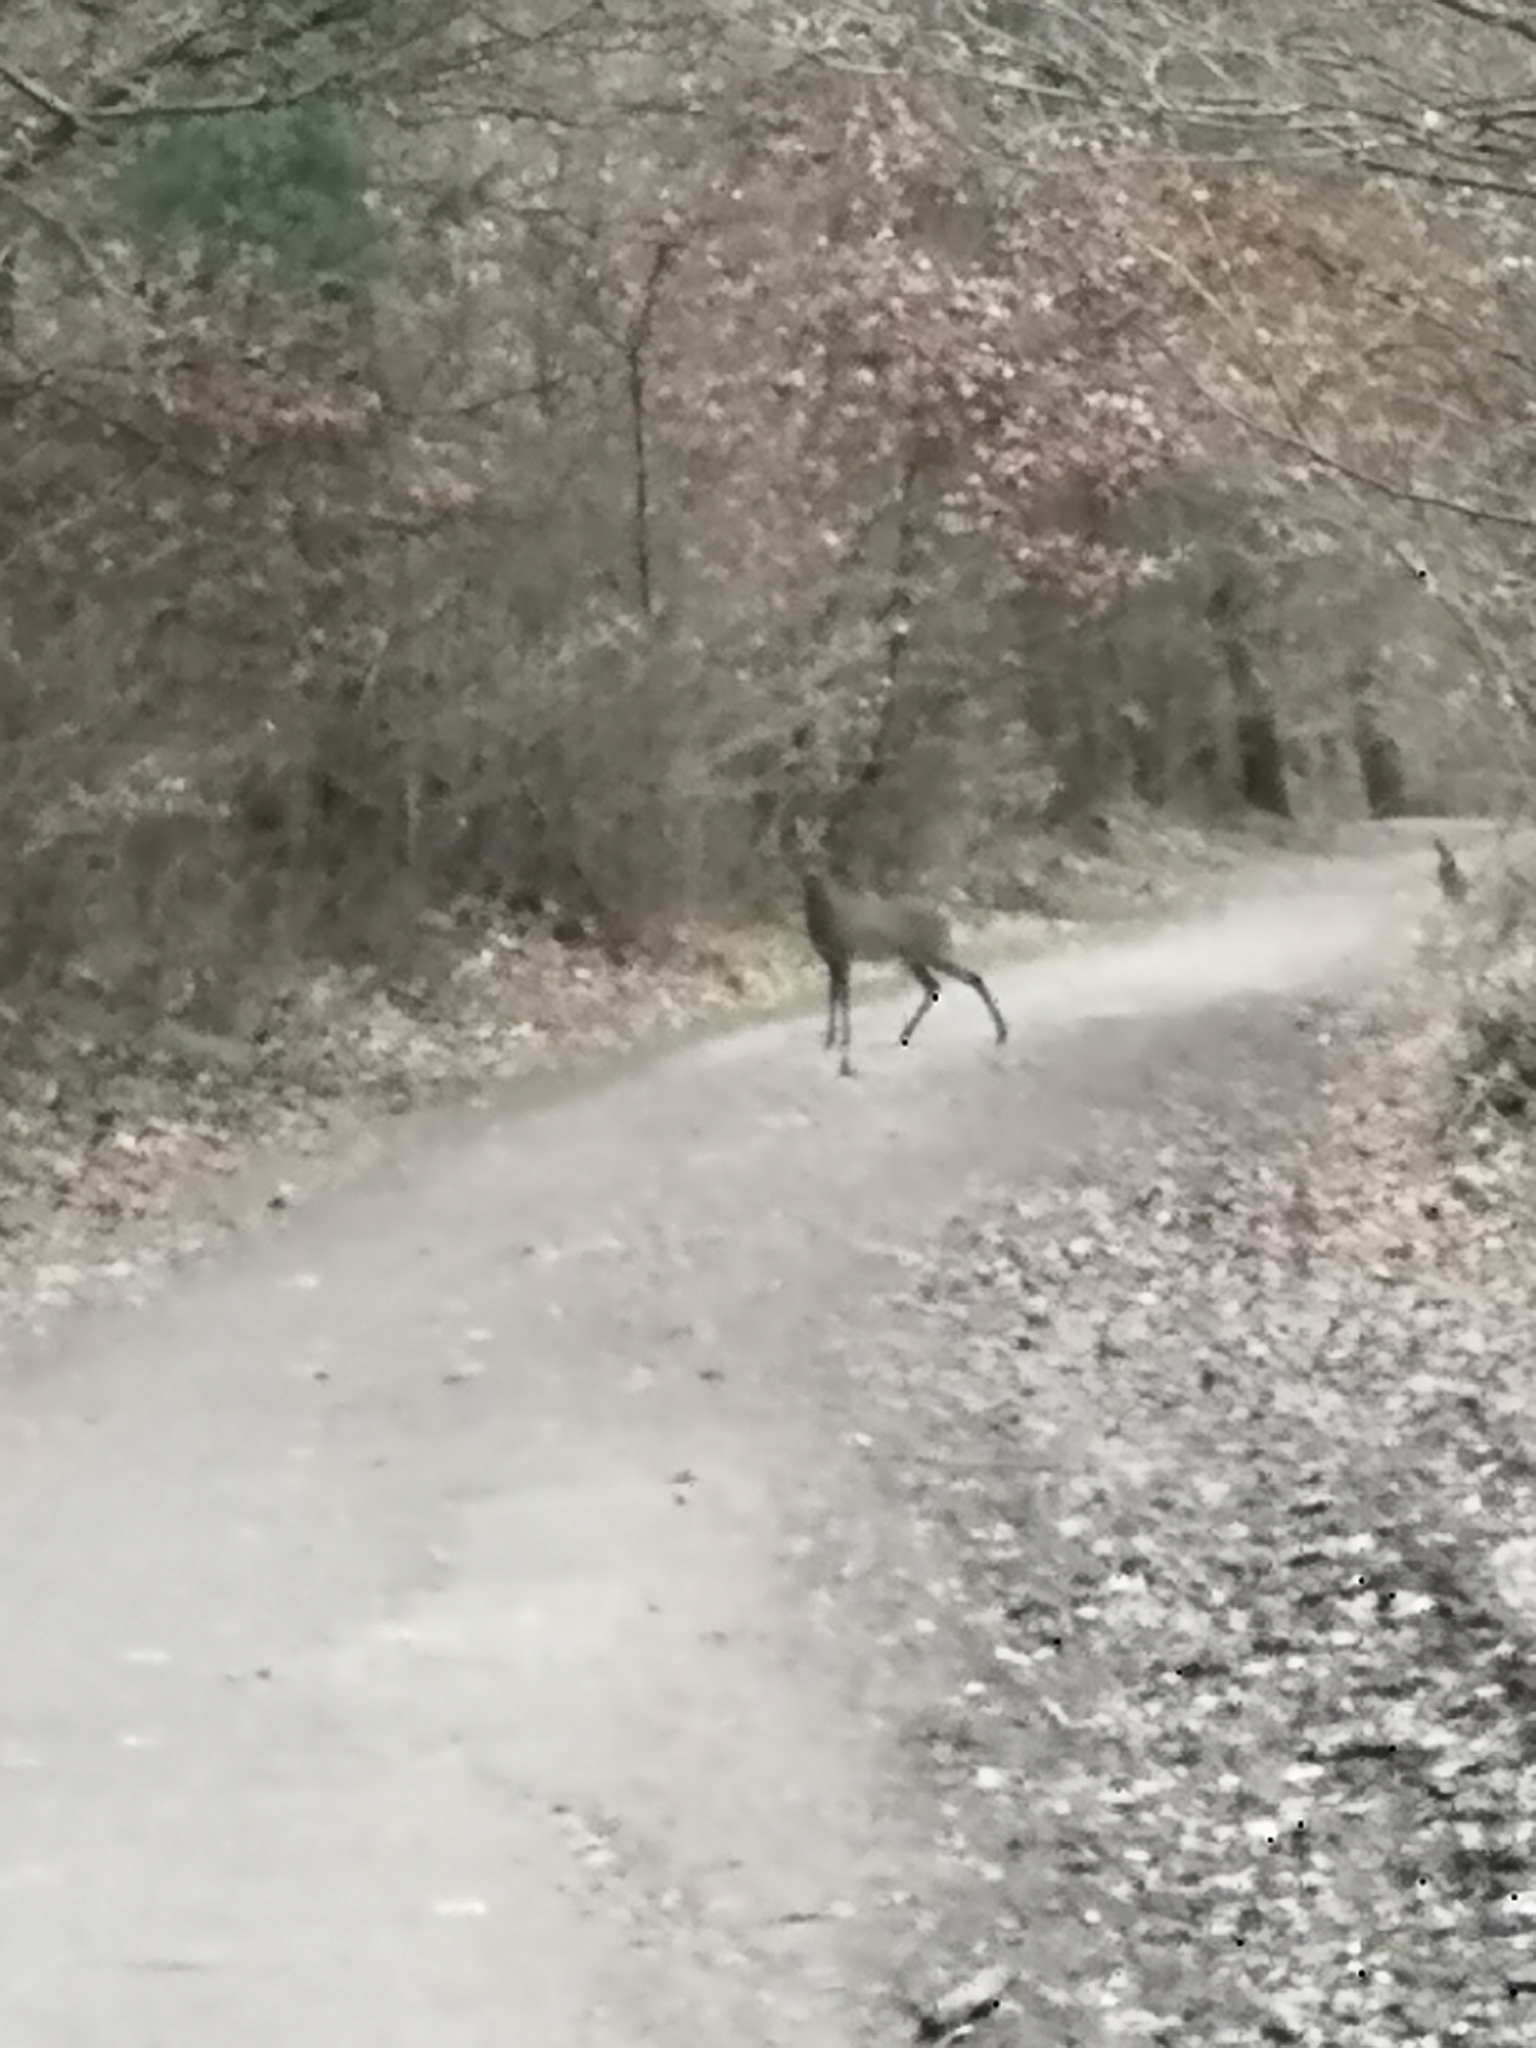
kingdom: Animalia
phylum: Chordata
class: Mammalia
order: Artiodactyla
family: Cervidae
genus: Capreolus
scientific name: Capreolus capreolus
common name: Western roe deer
